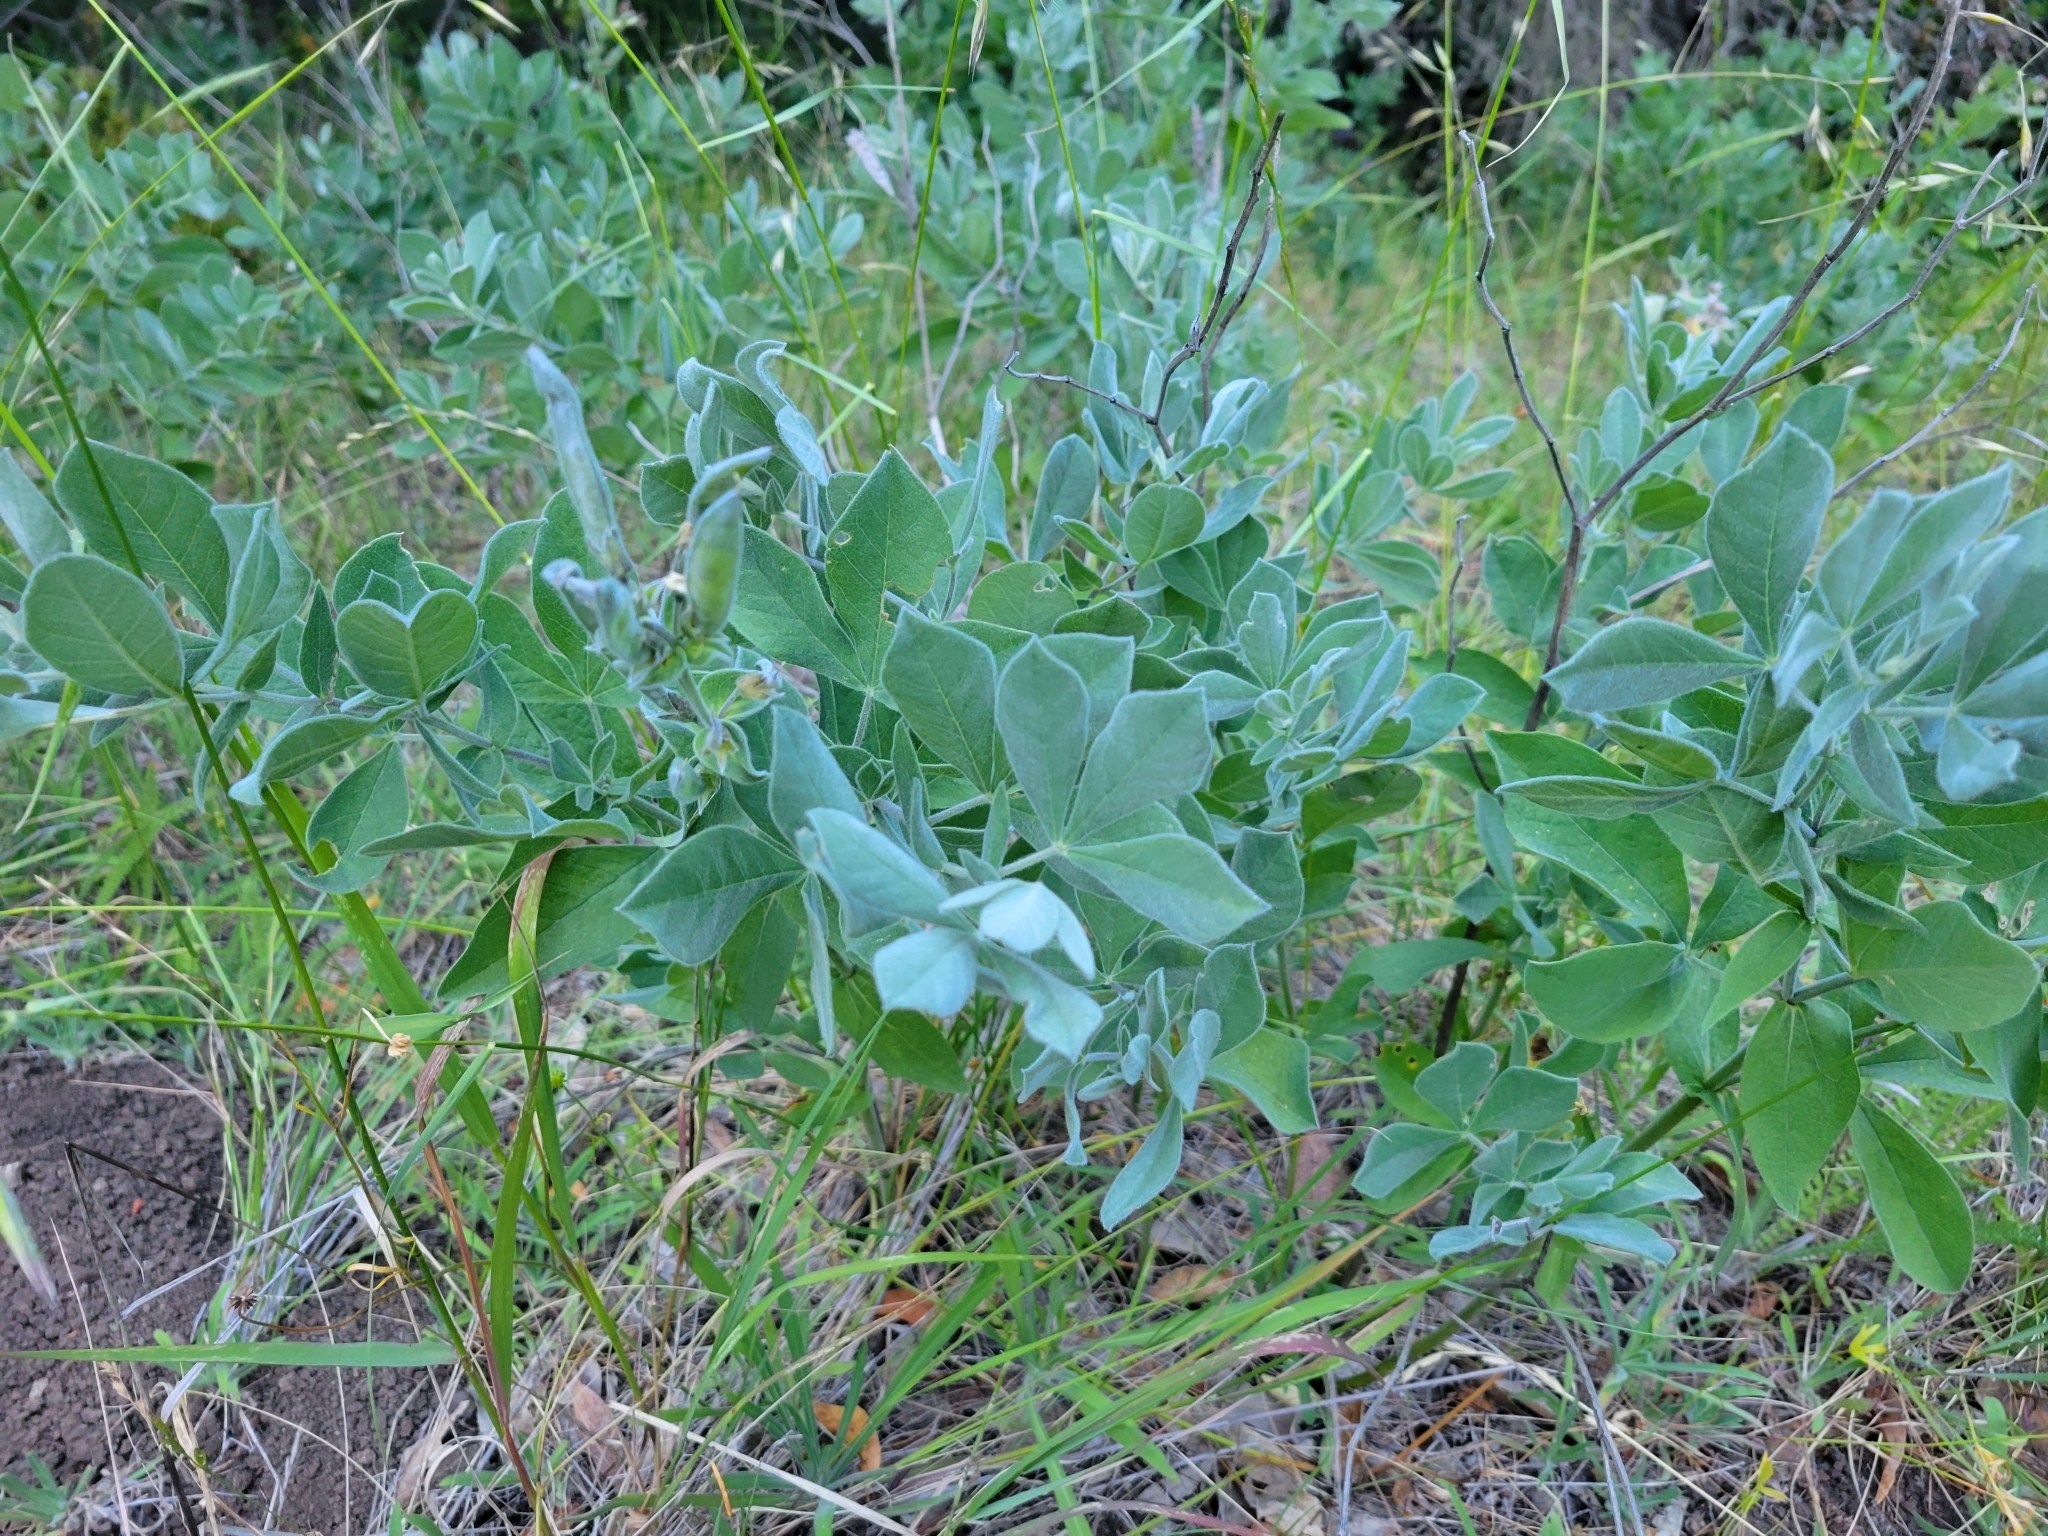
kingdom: Plantae
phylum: Tracheophyta
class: Magnoliopsida
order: Fabales
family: Fabaceae
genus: Thermopsis
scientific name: Thermopsis californica
